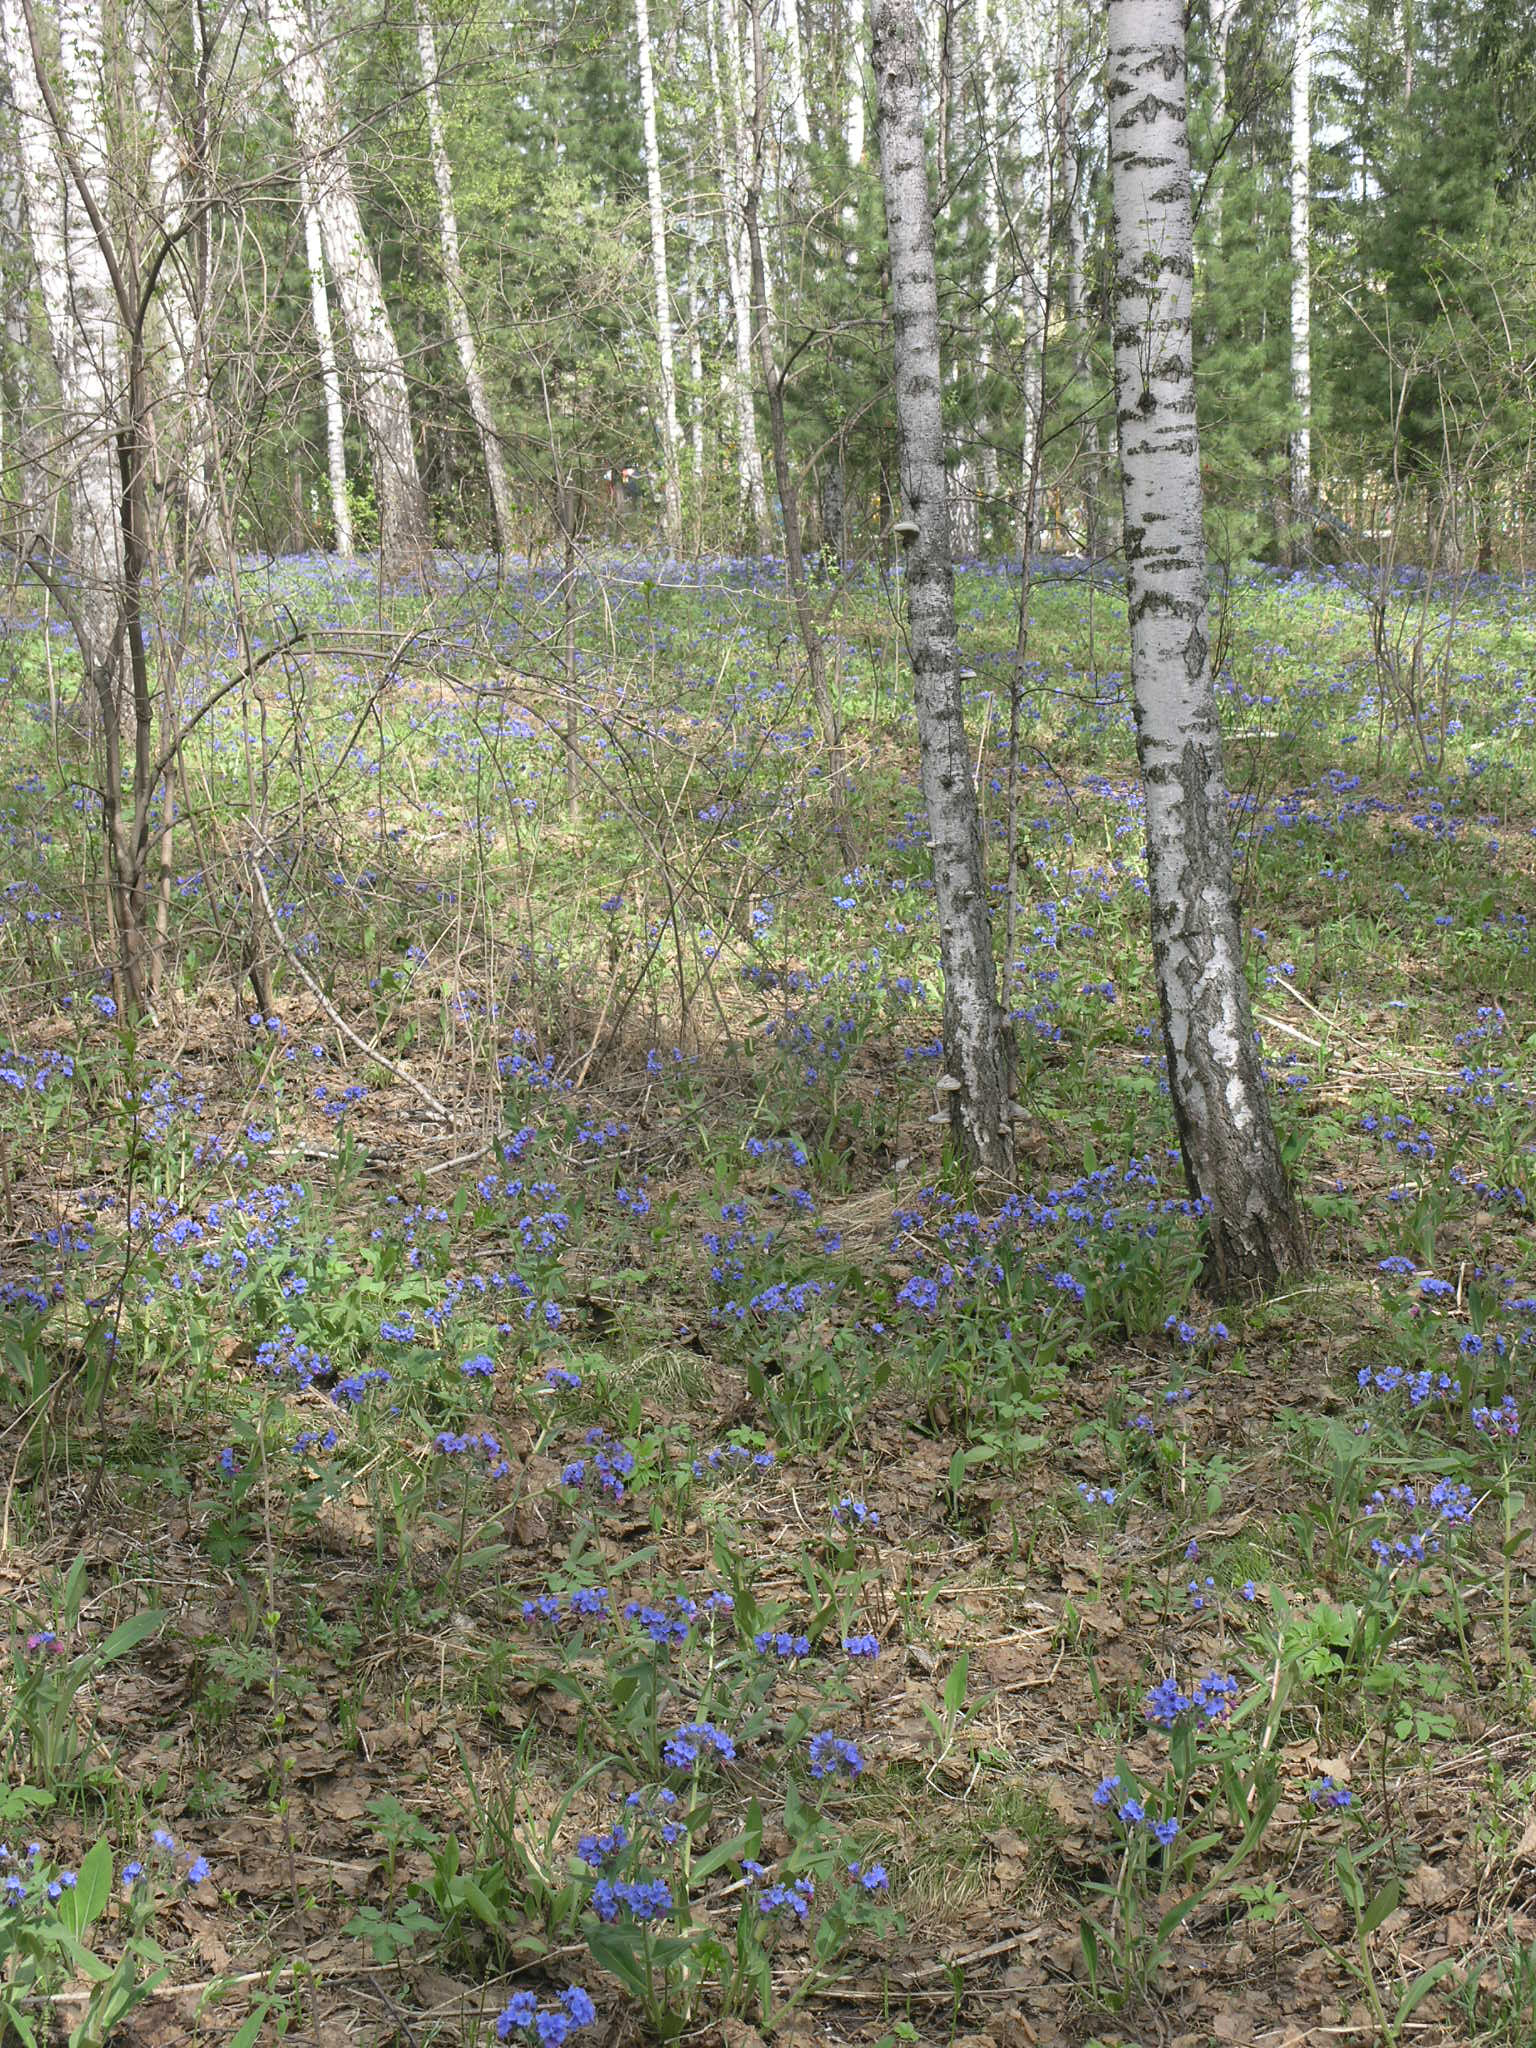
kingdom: Plantae
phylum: Tracheophyta
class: Magnoliopsida
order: Fagales
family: Betulaceae
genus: Betula
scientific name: Betula pendula
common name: Silver birch
